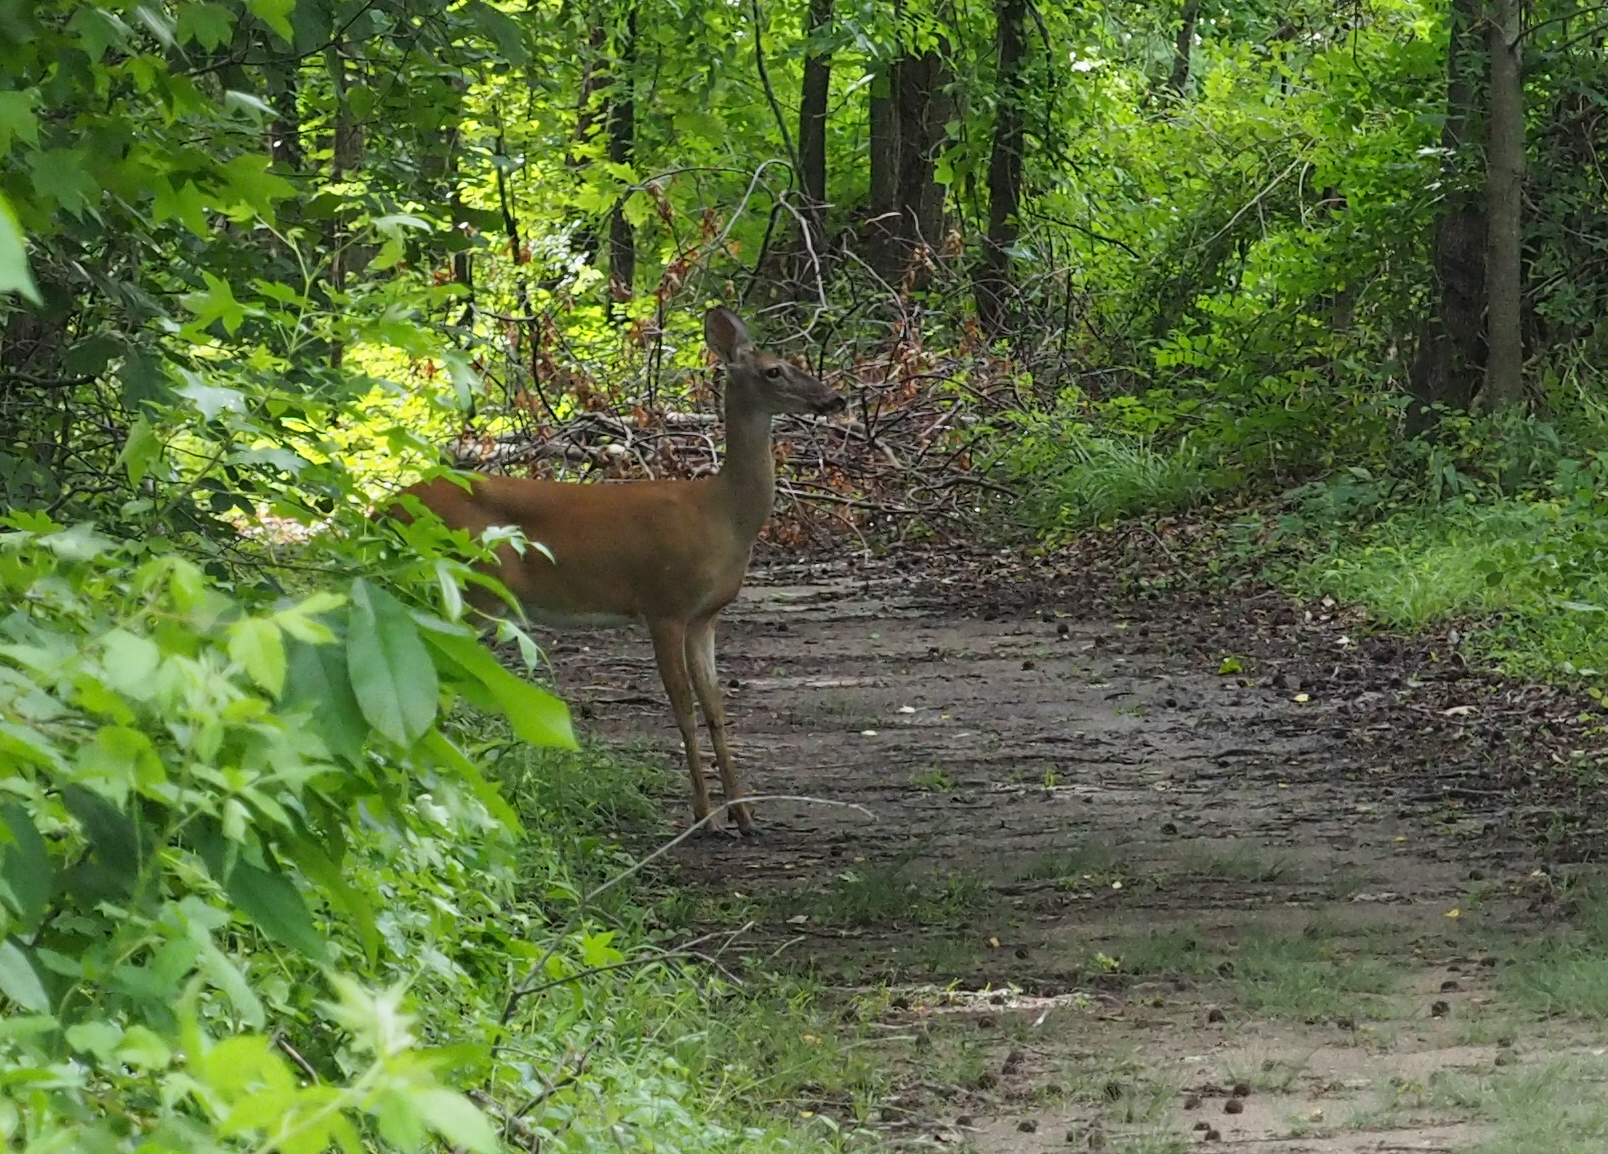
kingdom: Animalia
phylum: Chordata
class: Mammalia
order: Artiodactyla
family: Cervidae
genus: Odocoileus
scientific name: Odocoileus virginianus
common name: White-tailed deer
